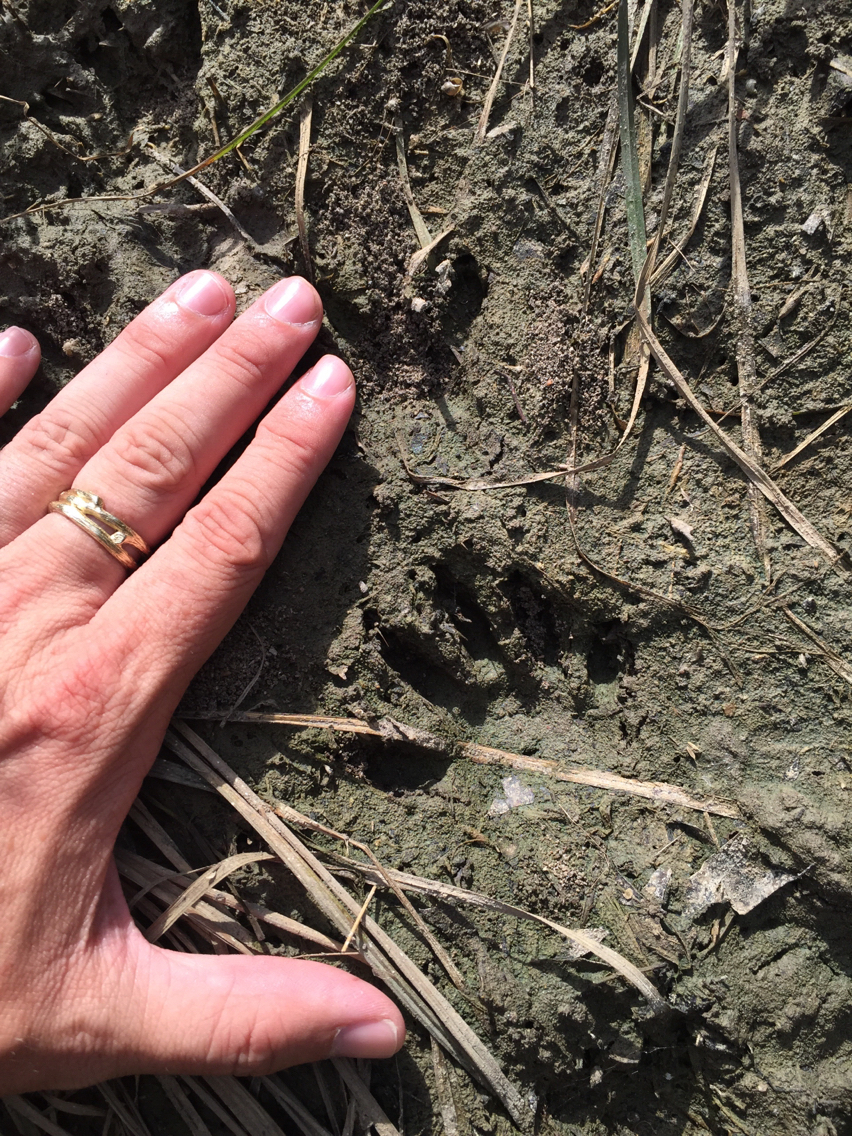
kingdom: Animalia
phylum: Chordata
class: Mammalia
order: Carnivora
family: Procyonidae
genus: Procyon
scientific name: Procyon lotor
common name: Raccoon
